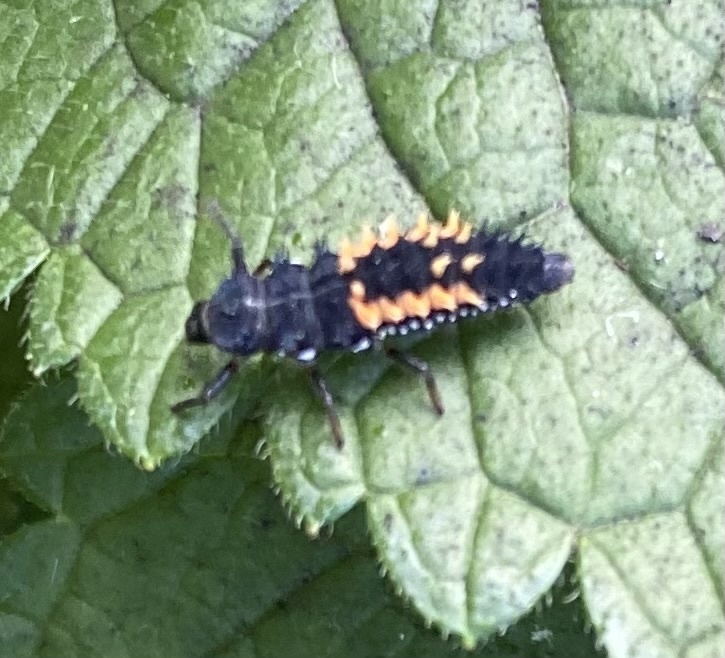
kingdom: Animalia
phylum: Arthropoda
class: Insecta
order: Coleoptera
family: Coccinellidae
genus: Harmonia
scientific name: Harmonia axyridis
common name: Harlequin ladybird
